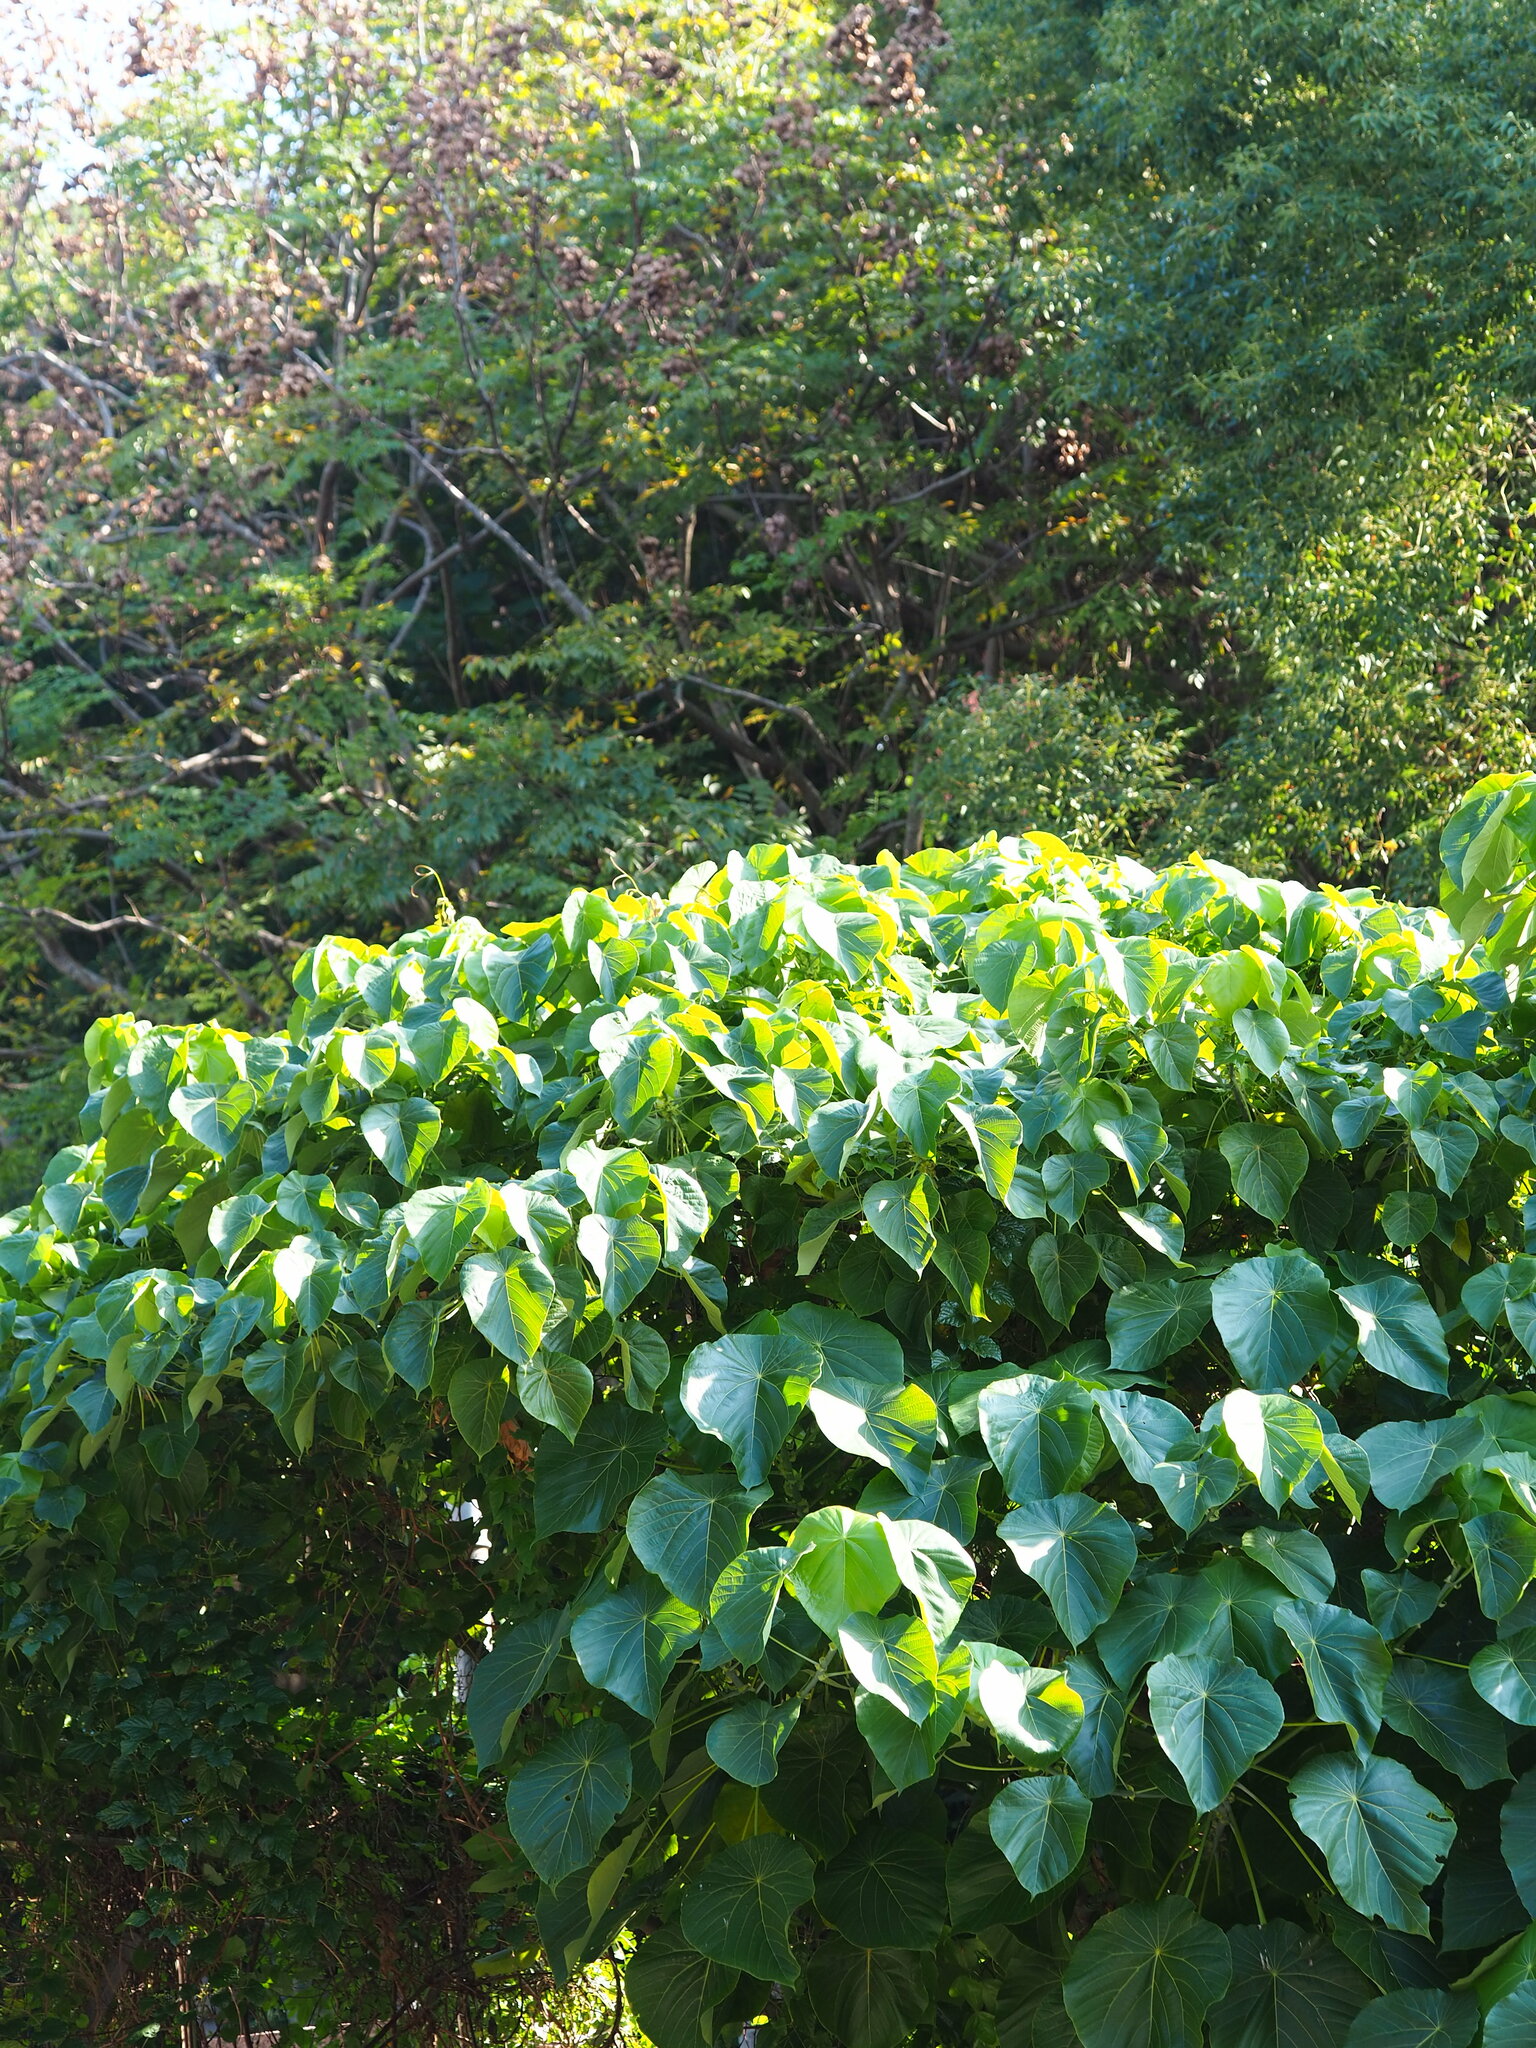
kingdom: Plantae
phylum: Tracheophyta
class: Magnoliopsida
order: Malpighiales
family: Euphorbiaceae
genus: Macaranga
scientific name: Macaranga tanarius
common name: Parasol leaf tree
